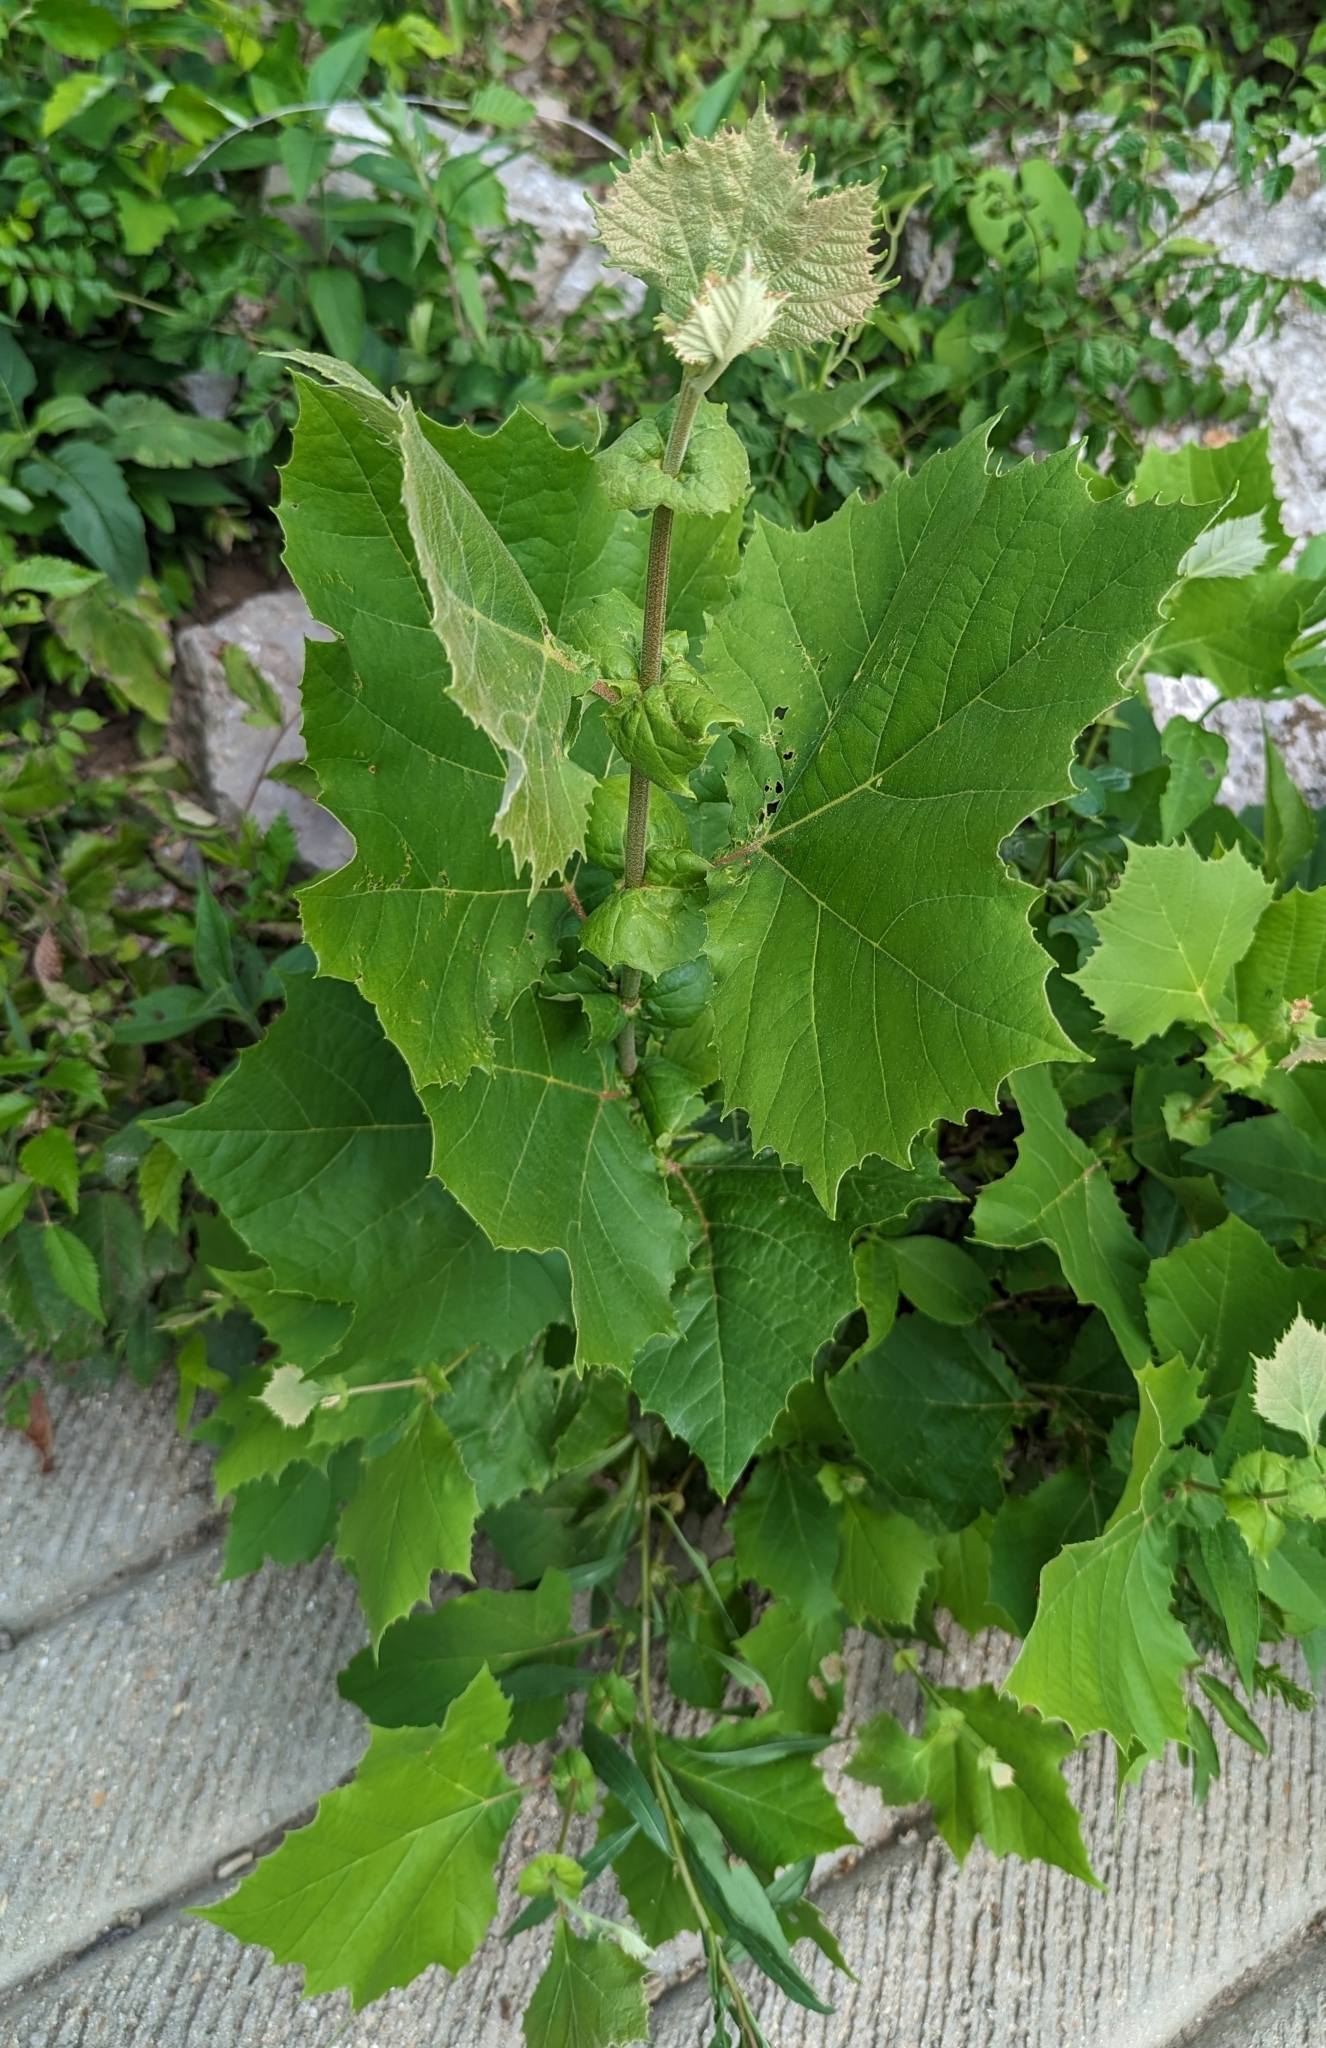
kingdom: Plantae
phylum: Tracheophyta
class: Magnoliopsida
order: Proteales
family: Platanaceae
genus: Platanus
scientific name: Platanus occidentalis
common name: American sycamore
